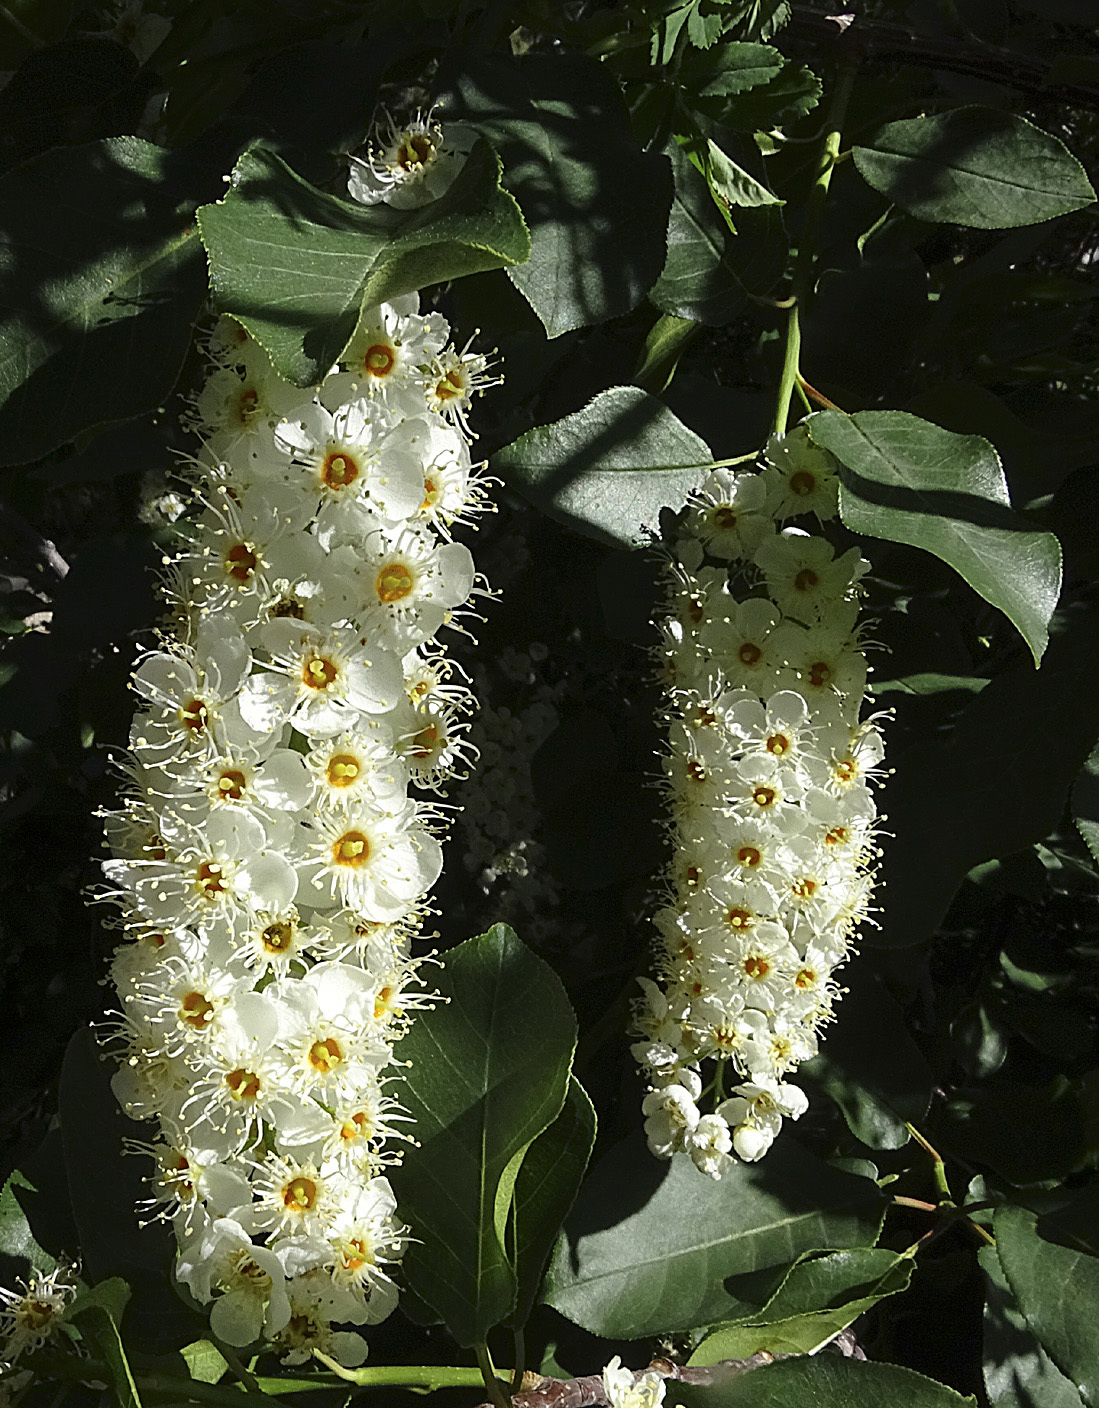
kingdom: Plantae
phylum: Tracheophyta
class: Magnoliopsida
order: Rosales
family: Rosaceae
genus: Prunus
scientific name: Prunus virginiana
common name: Chokecherry
